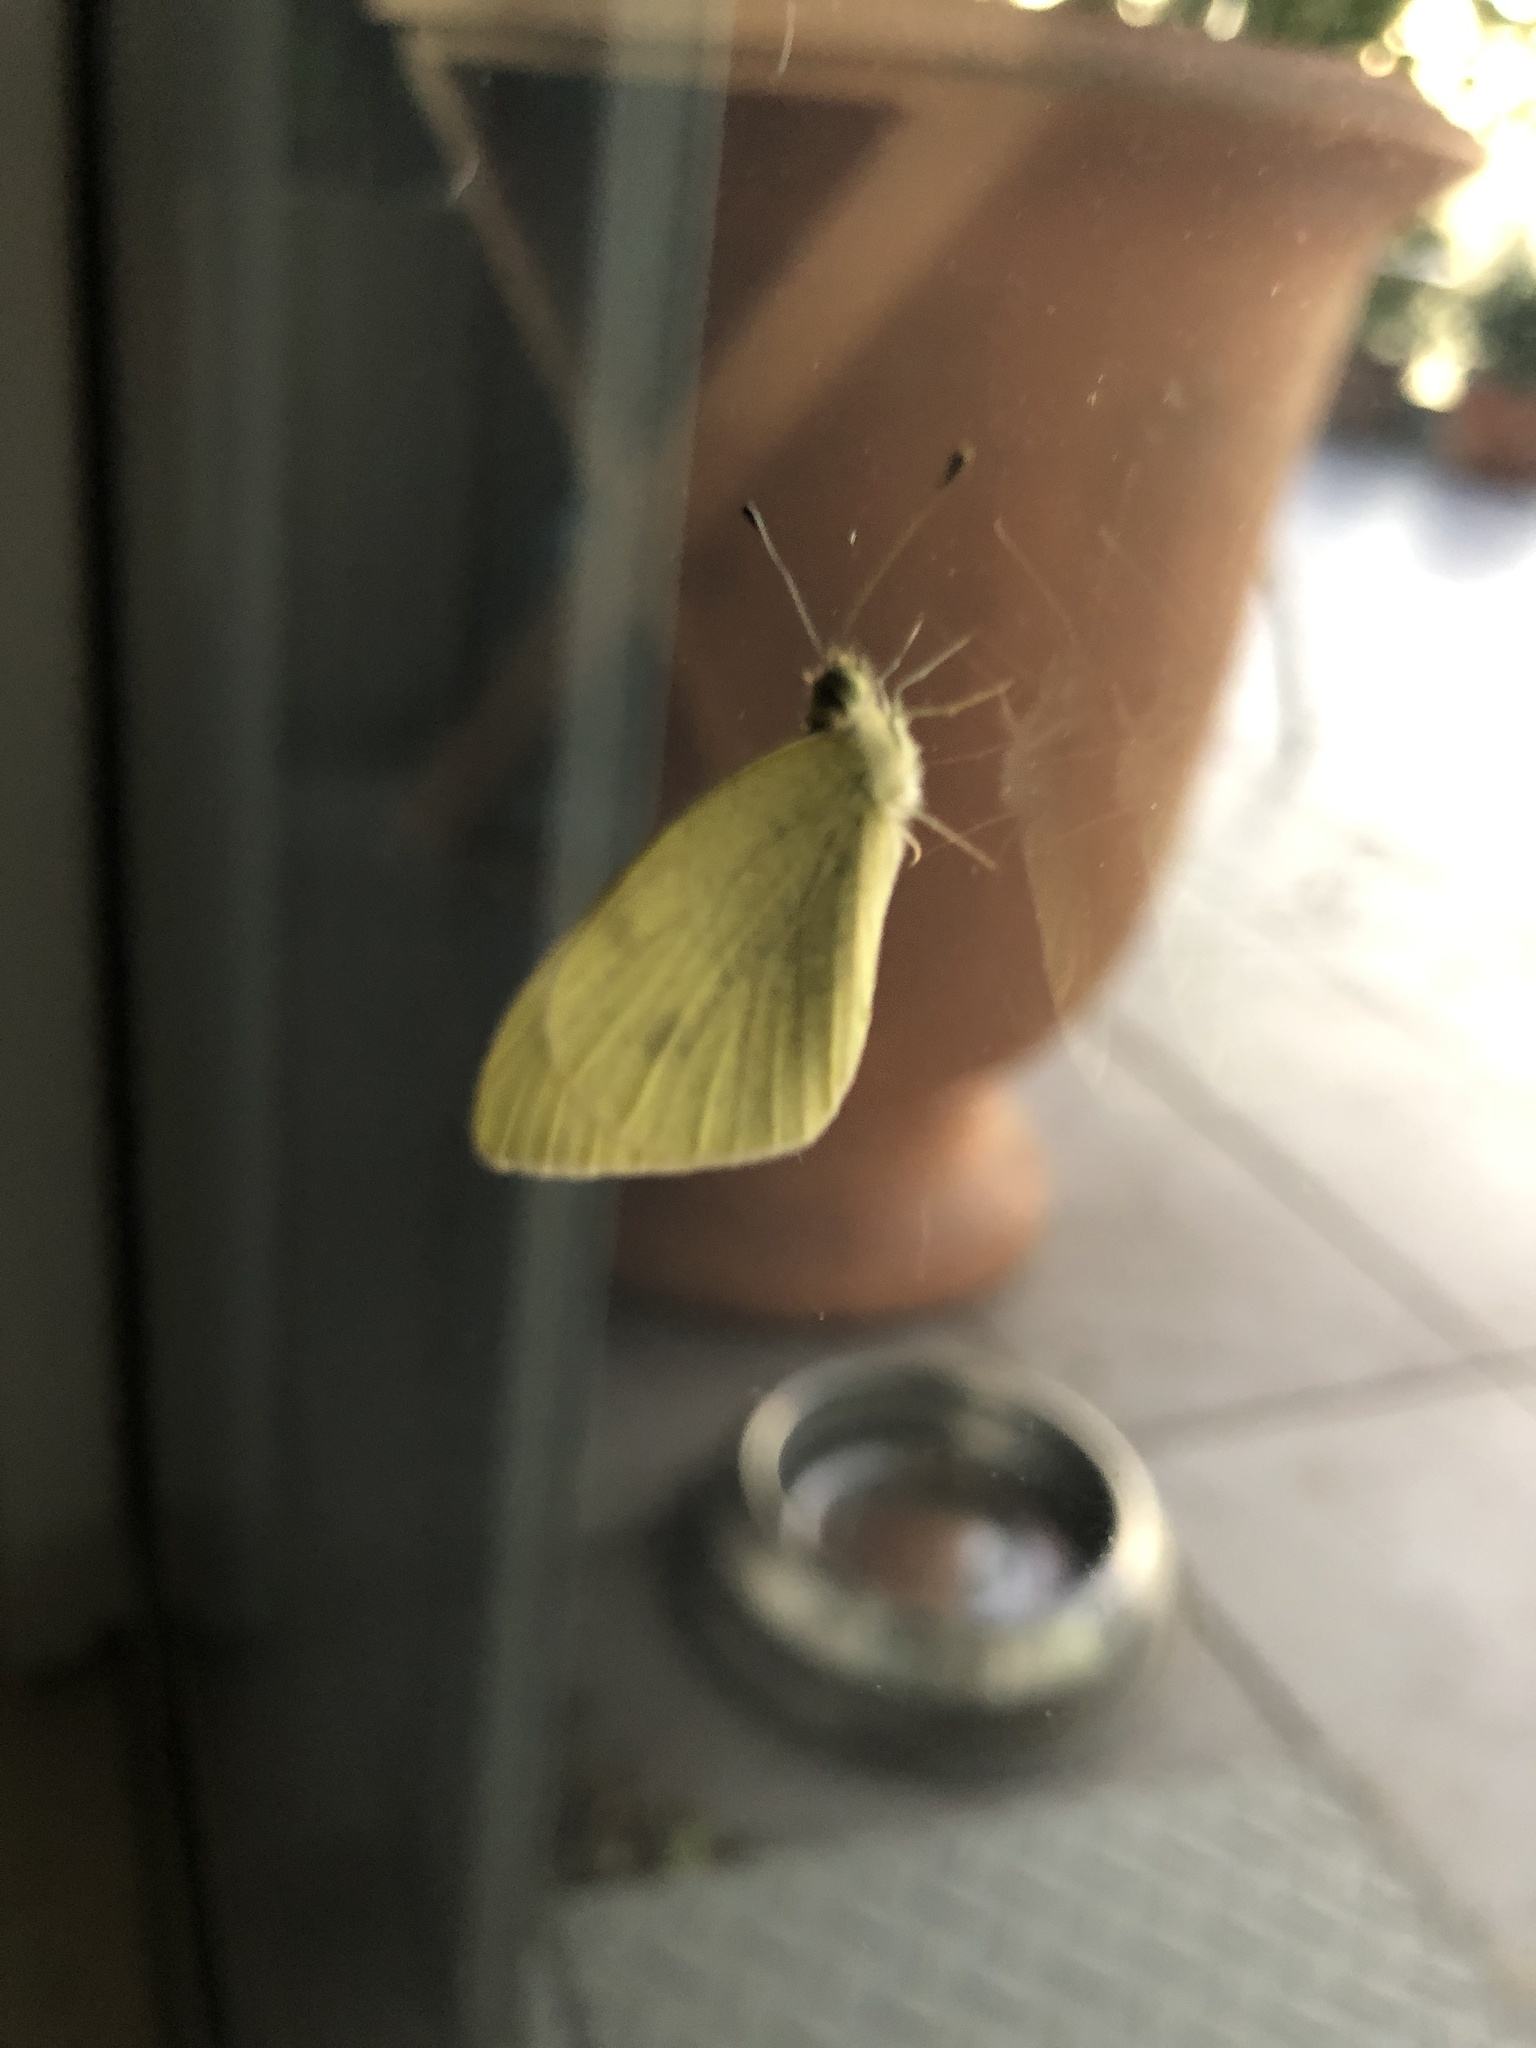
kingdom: Animalia
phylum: Arthropoda
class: Insecta
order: Lepidoptera
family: Pieridae
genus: Pieris
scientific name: Pieris rapae
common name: Small white
